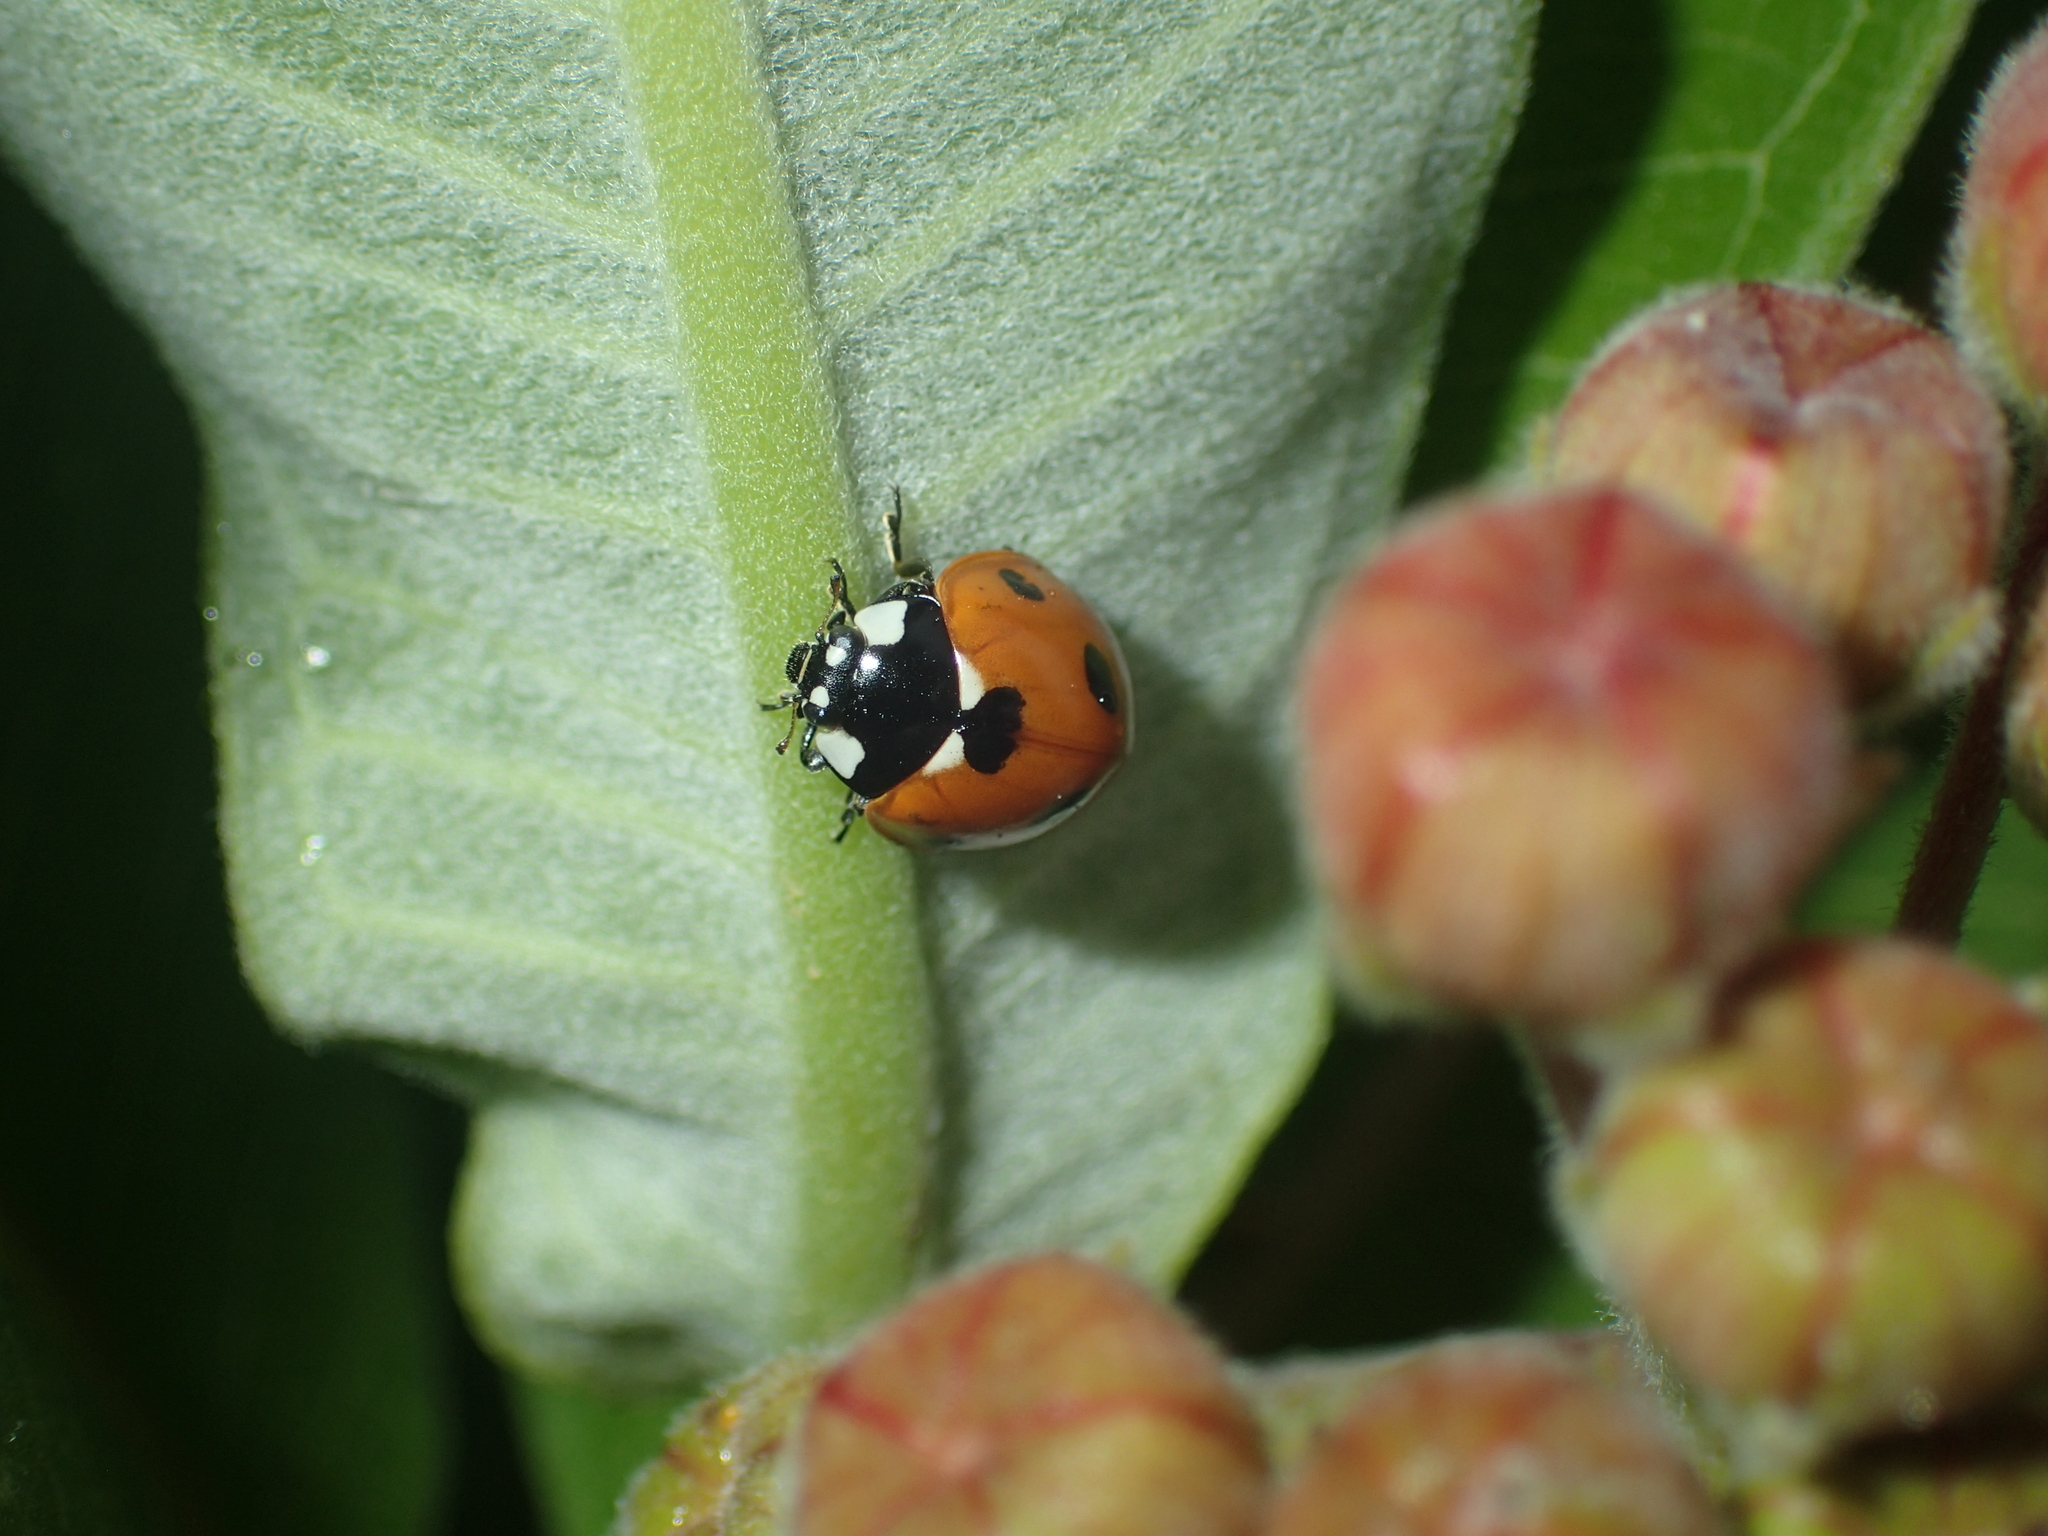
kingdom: Animalia
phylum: Arthropoda
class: Insecta
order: Coleoptera
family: Coccinellidae
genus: Coccinella
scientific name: Coccinella septempunctata
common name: Sevenspotted lady beetle
